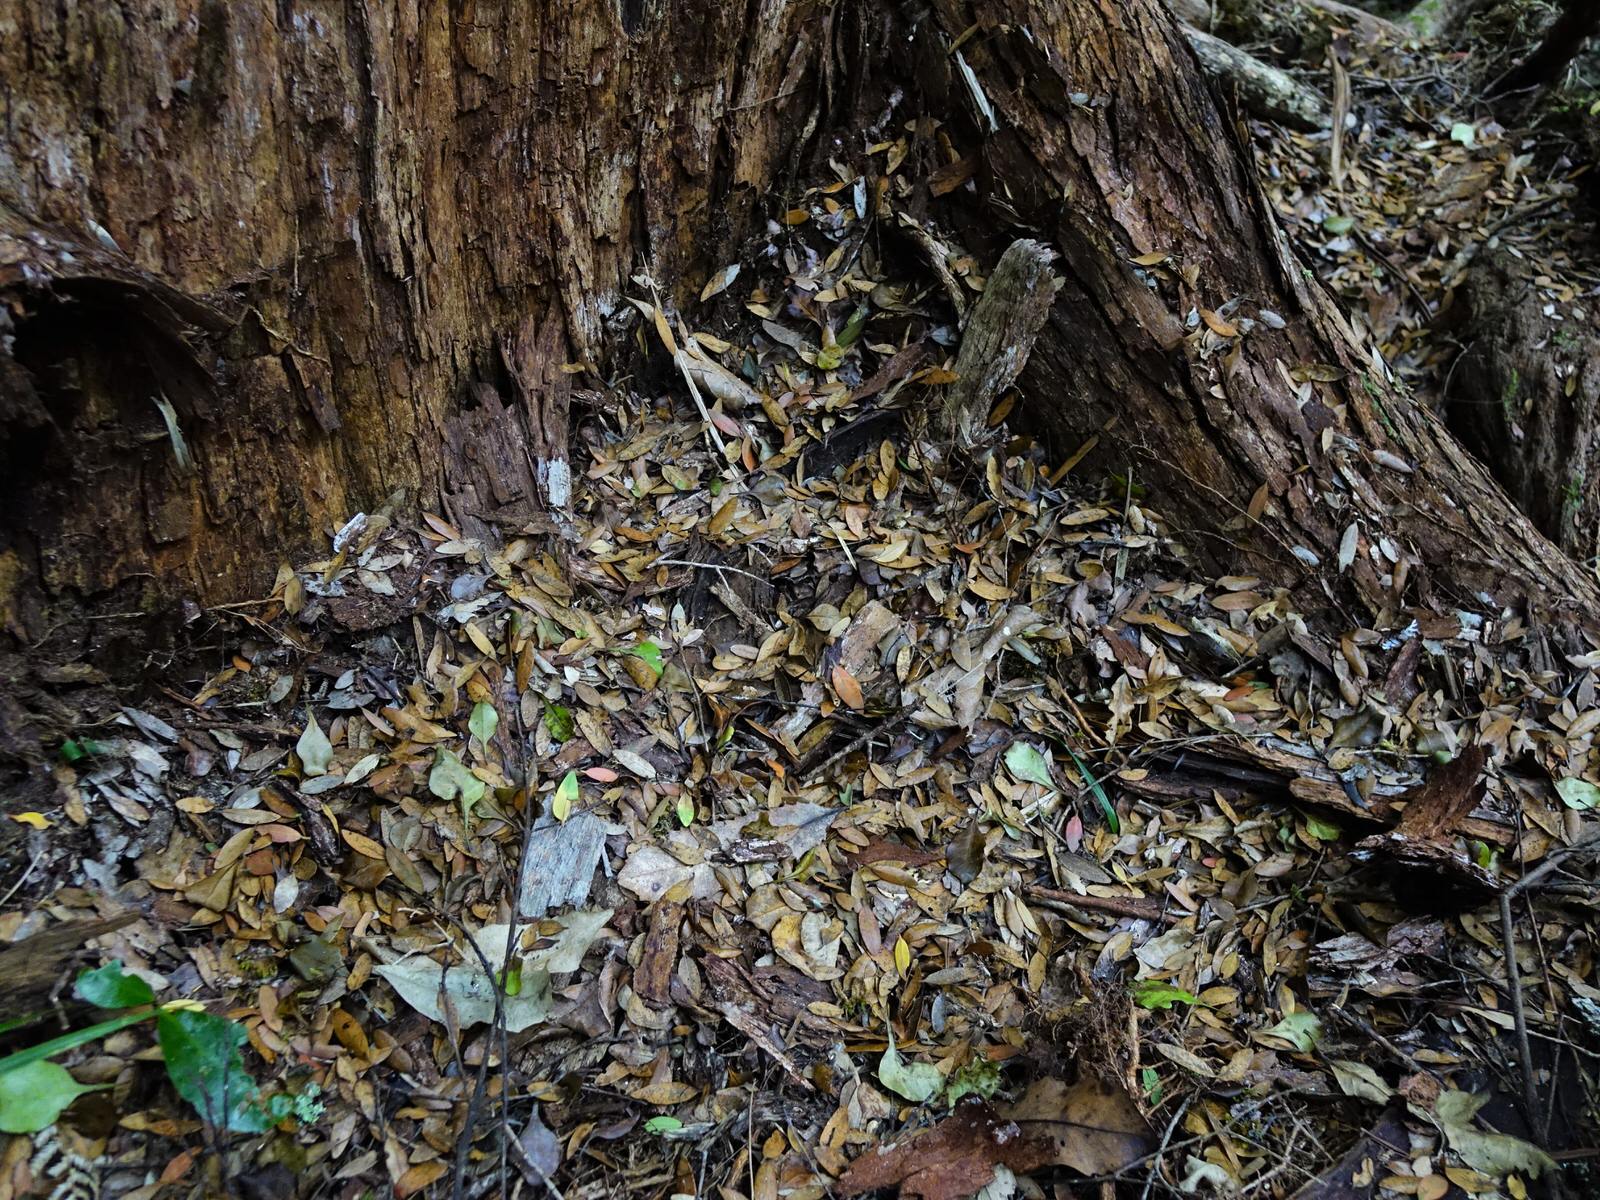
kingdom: Plantae
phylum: Tracheophyta
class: Magnoliopsida
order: Myrtales
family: Myrtaceae
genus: Metrosideros
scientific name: Metrosideros robusta
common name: Northern rata
